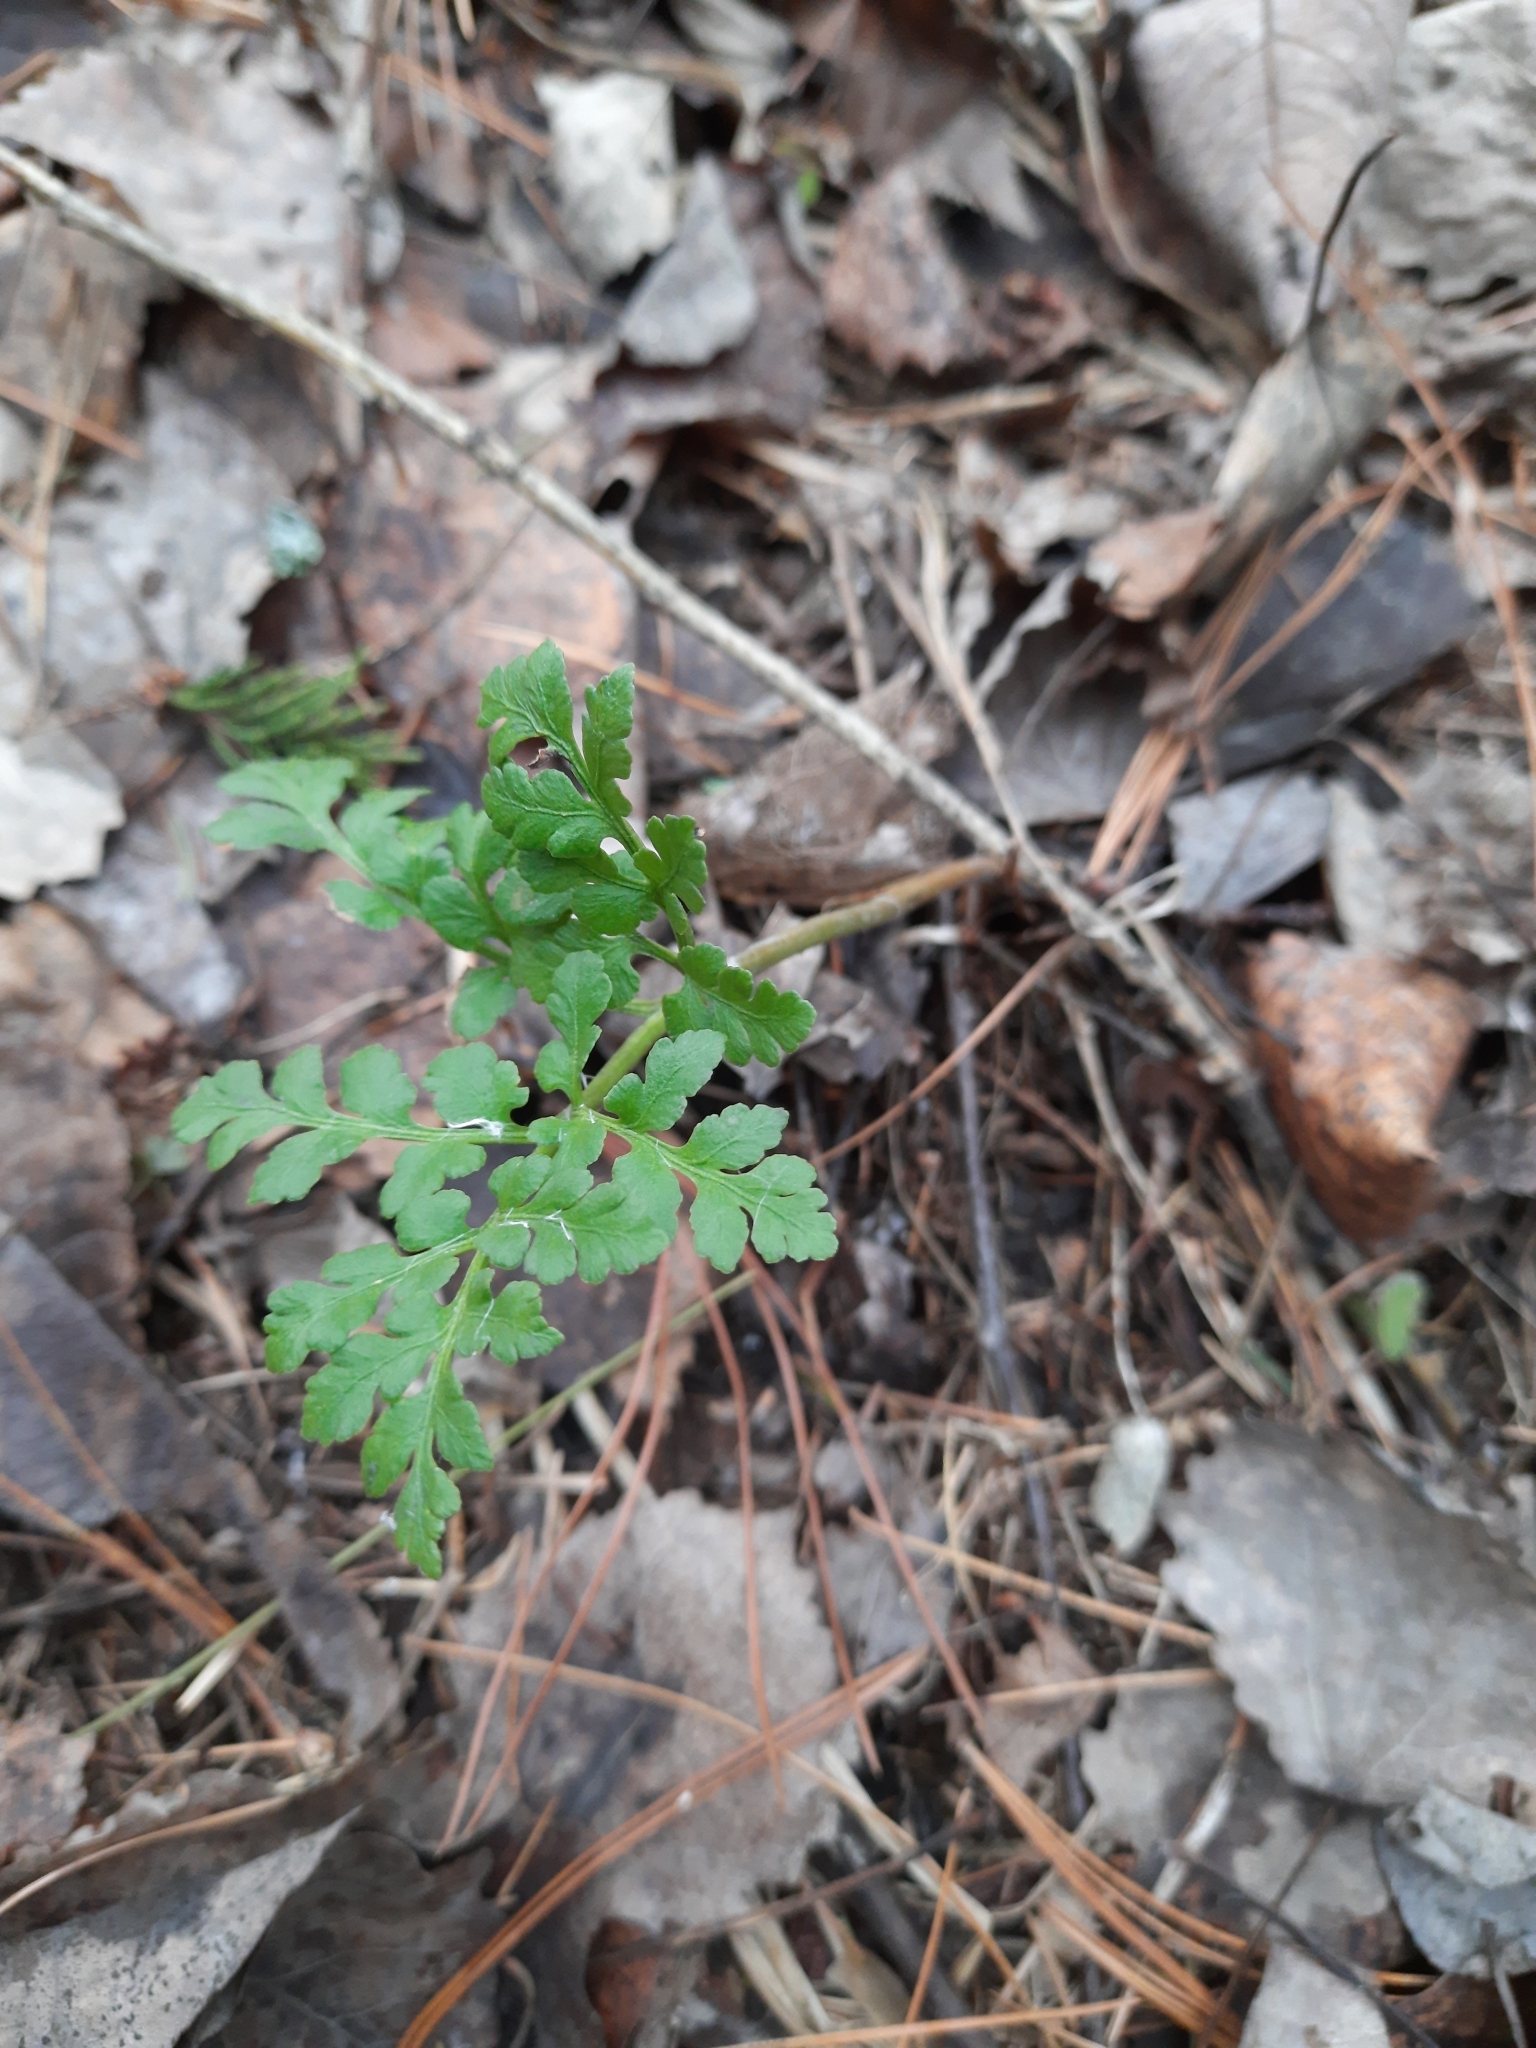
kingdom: Plantae
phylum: Tracheophyta
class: Polypodiopsida
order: Ophioglossales
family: Ophioglossaceae
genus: Sceptridium
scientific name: Sceptridium multifidum
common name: Leathery grape fern
